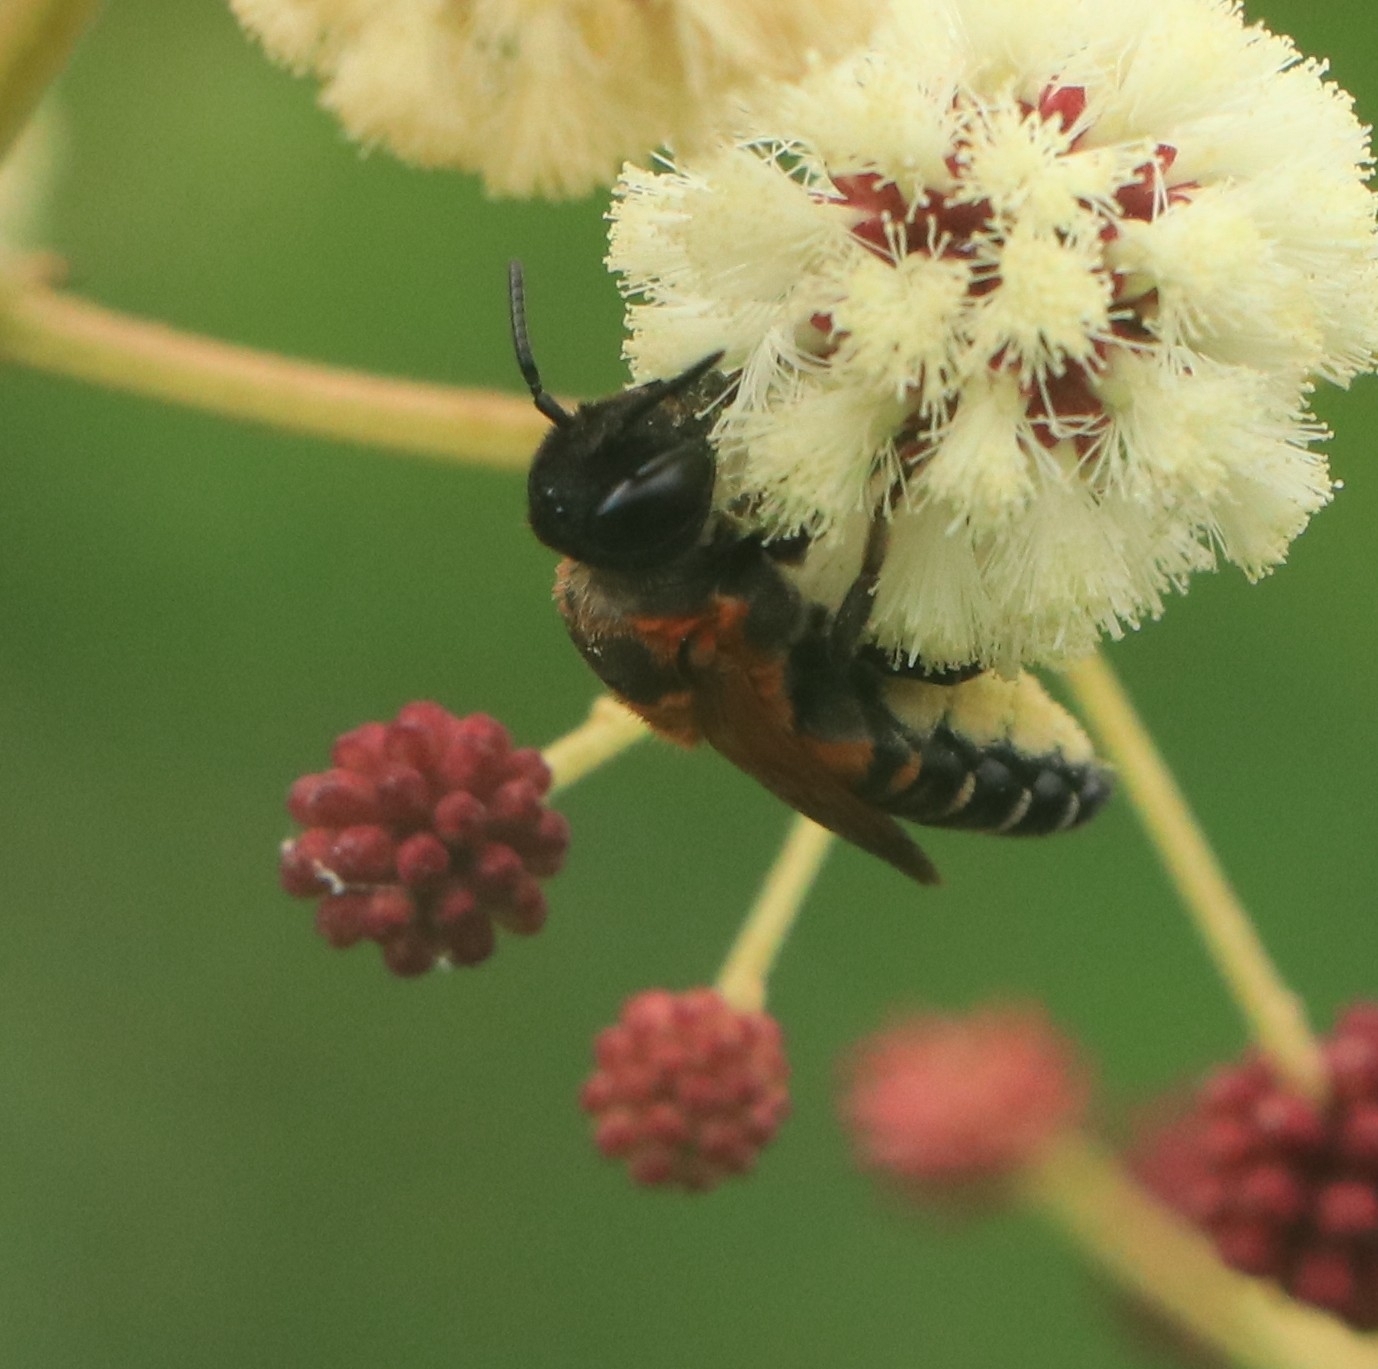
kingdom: Animalia
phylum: Arthropoda
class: Insecta
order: Hymenoptera
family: Megachilidae
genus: Megachile
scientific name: Megachile lerma
